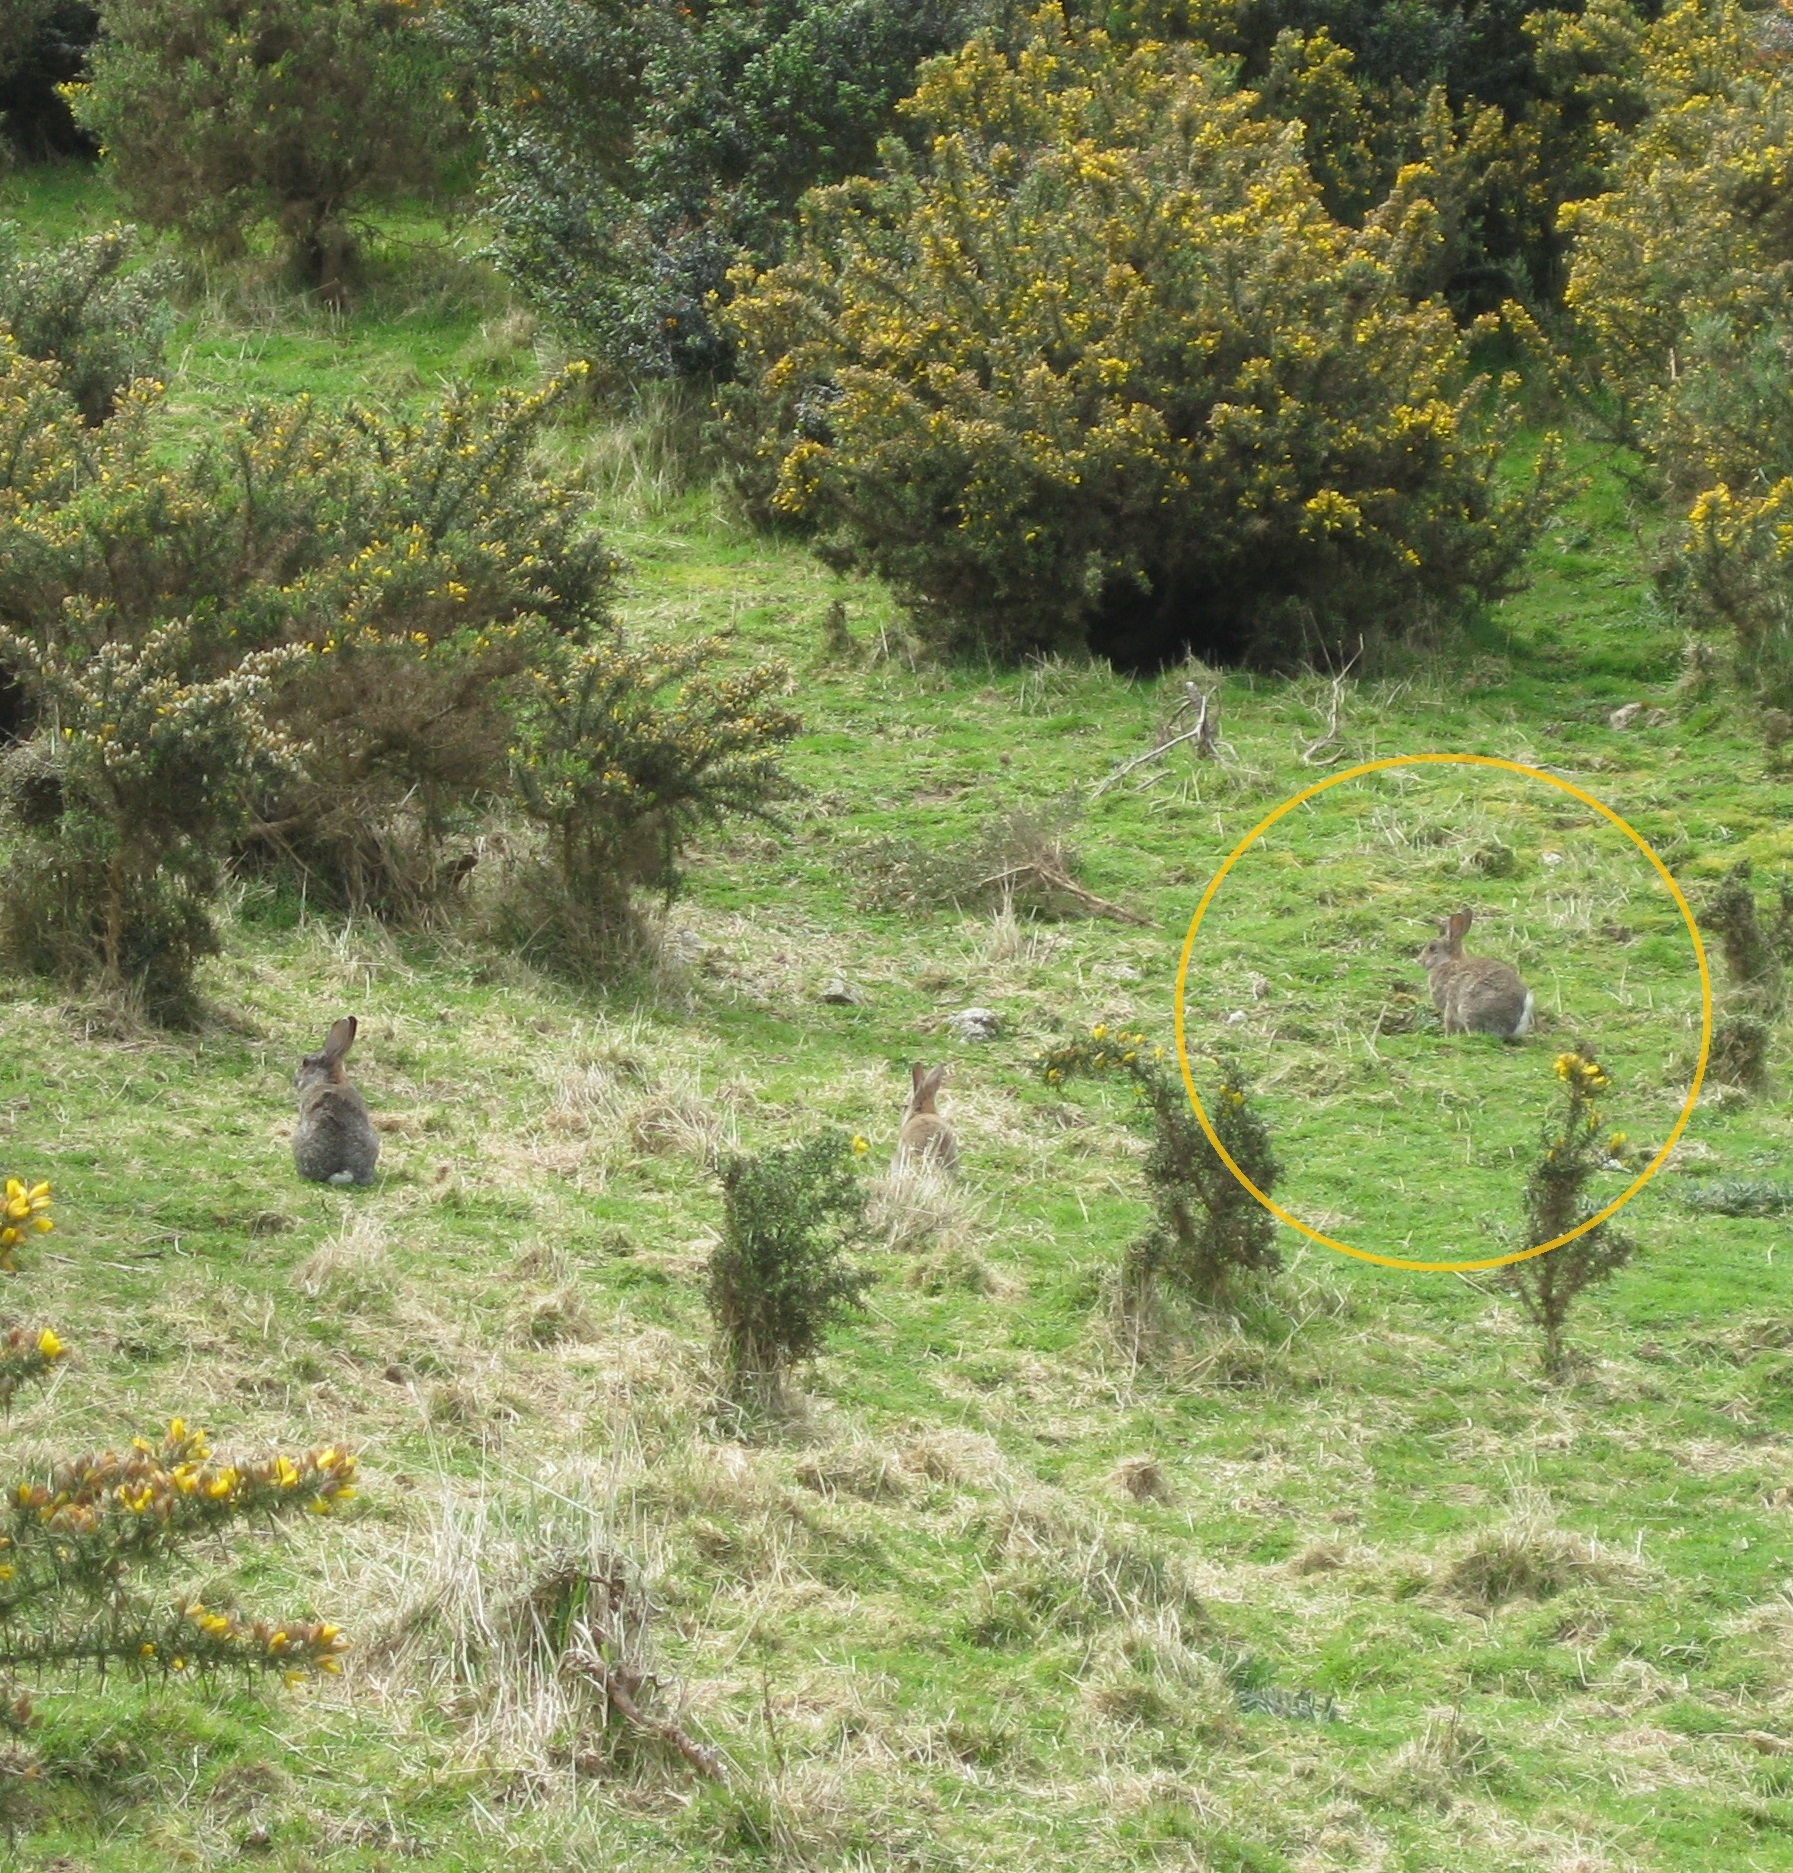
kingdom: Animalia
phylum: Chordata
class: Mammalia
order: Lagomorpha
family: Leporidae
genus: Oryctolagus
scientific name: Oryctolagus cuniculus
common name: European rabbit
